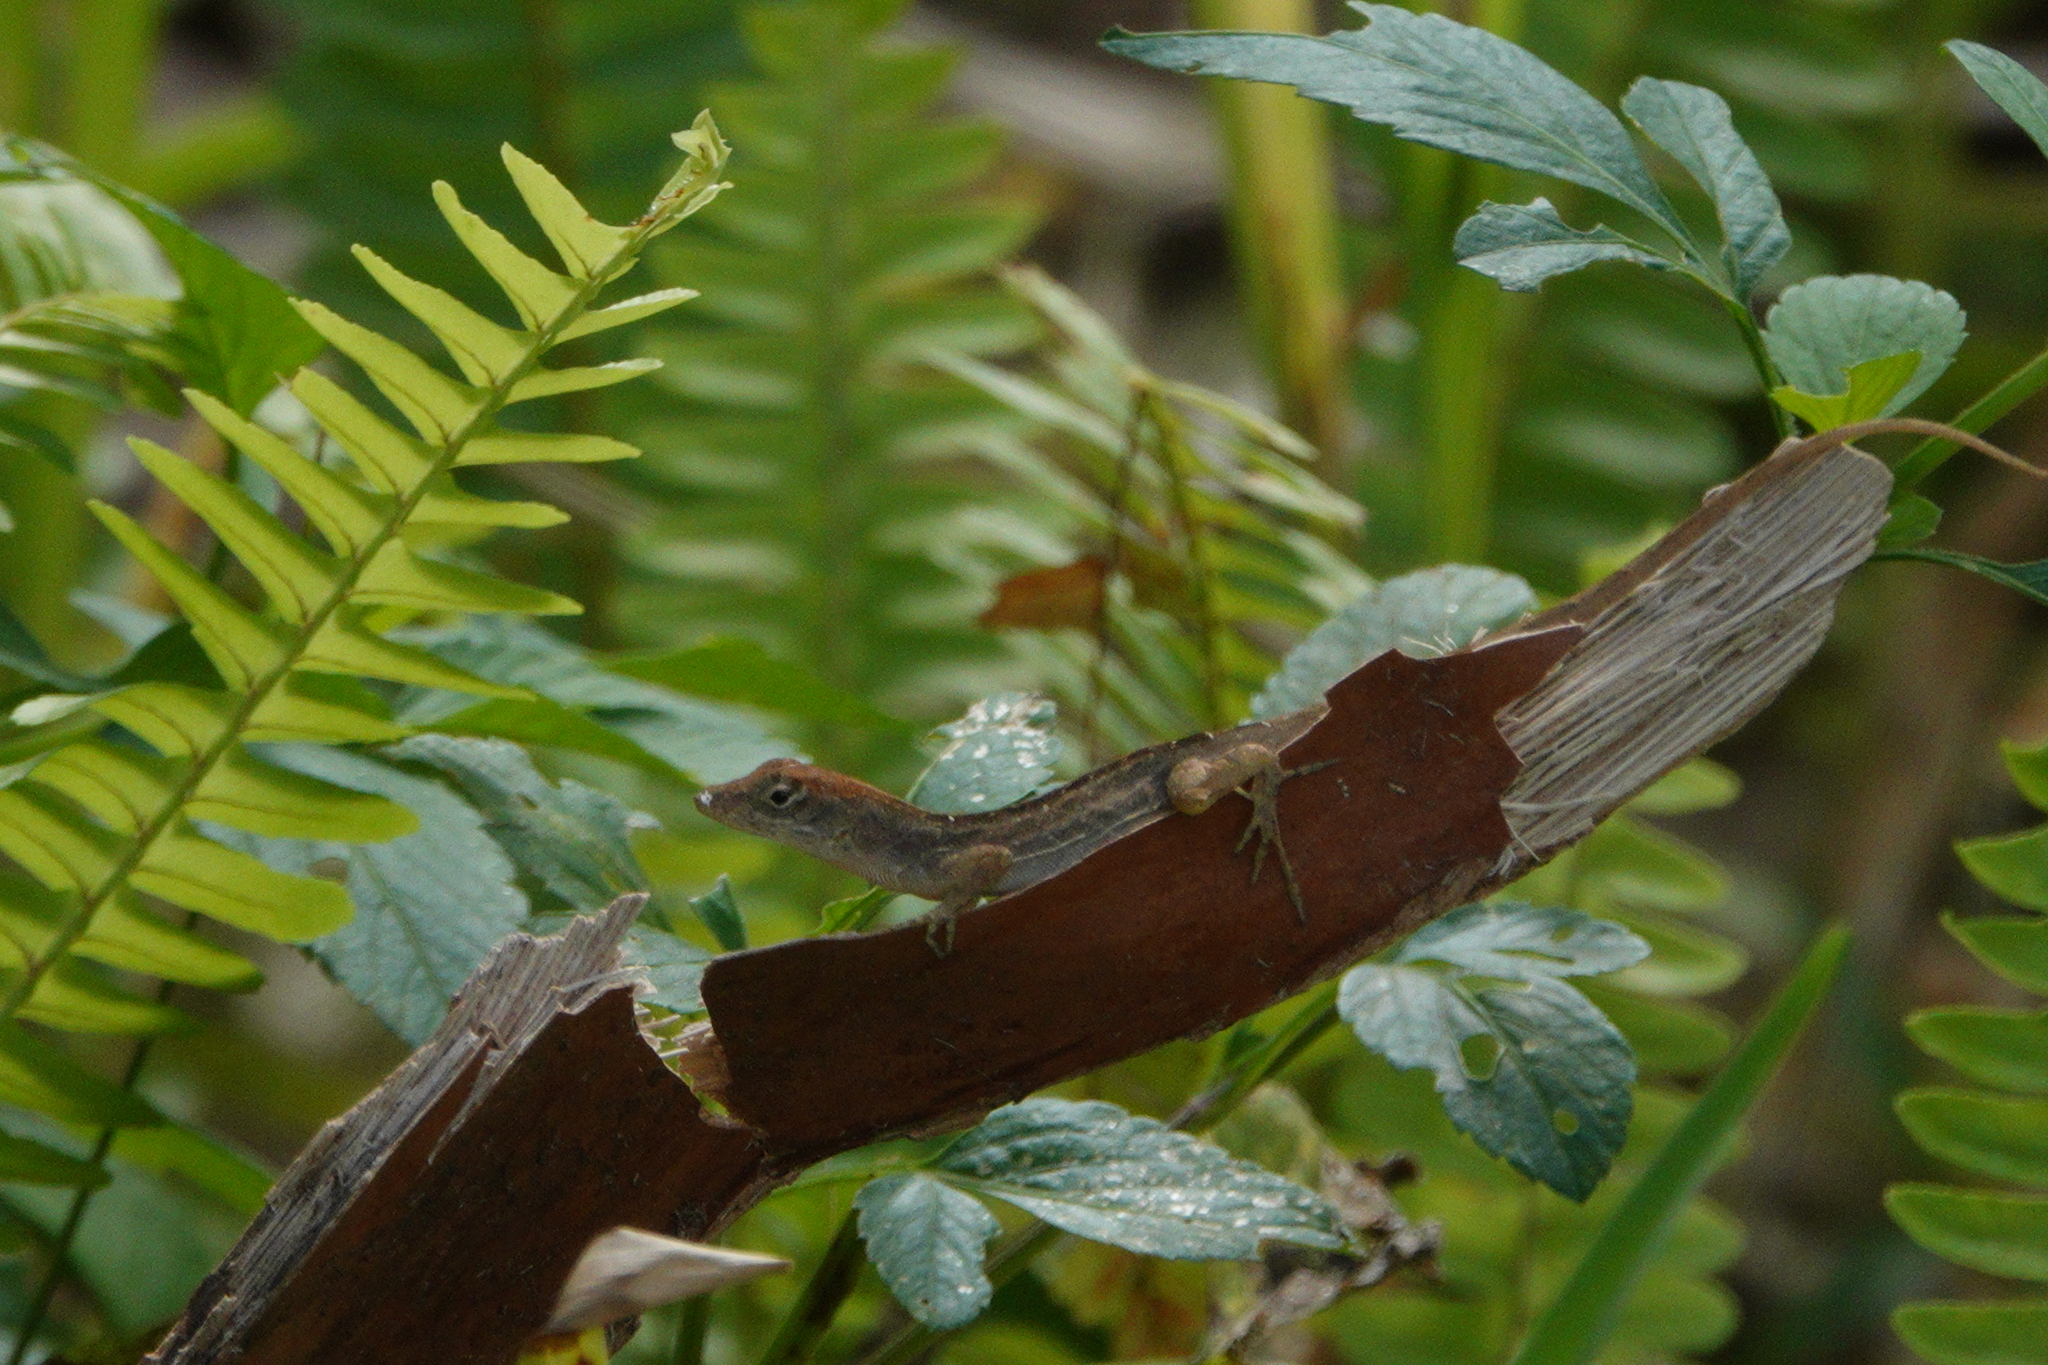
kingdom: Animalia
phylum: Chordata
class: Squamata
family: Dactyloidae
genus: Anolis
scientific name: Anolis sagrei
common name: Brown anole
